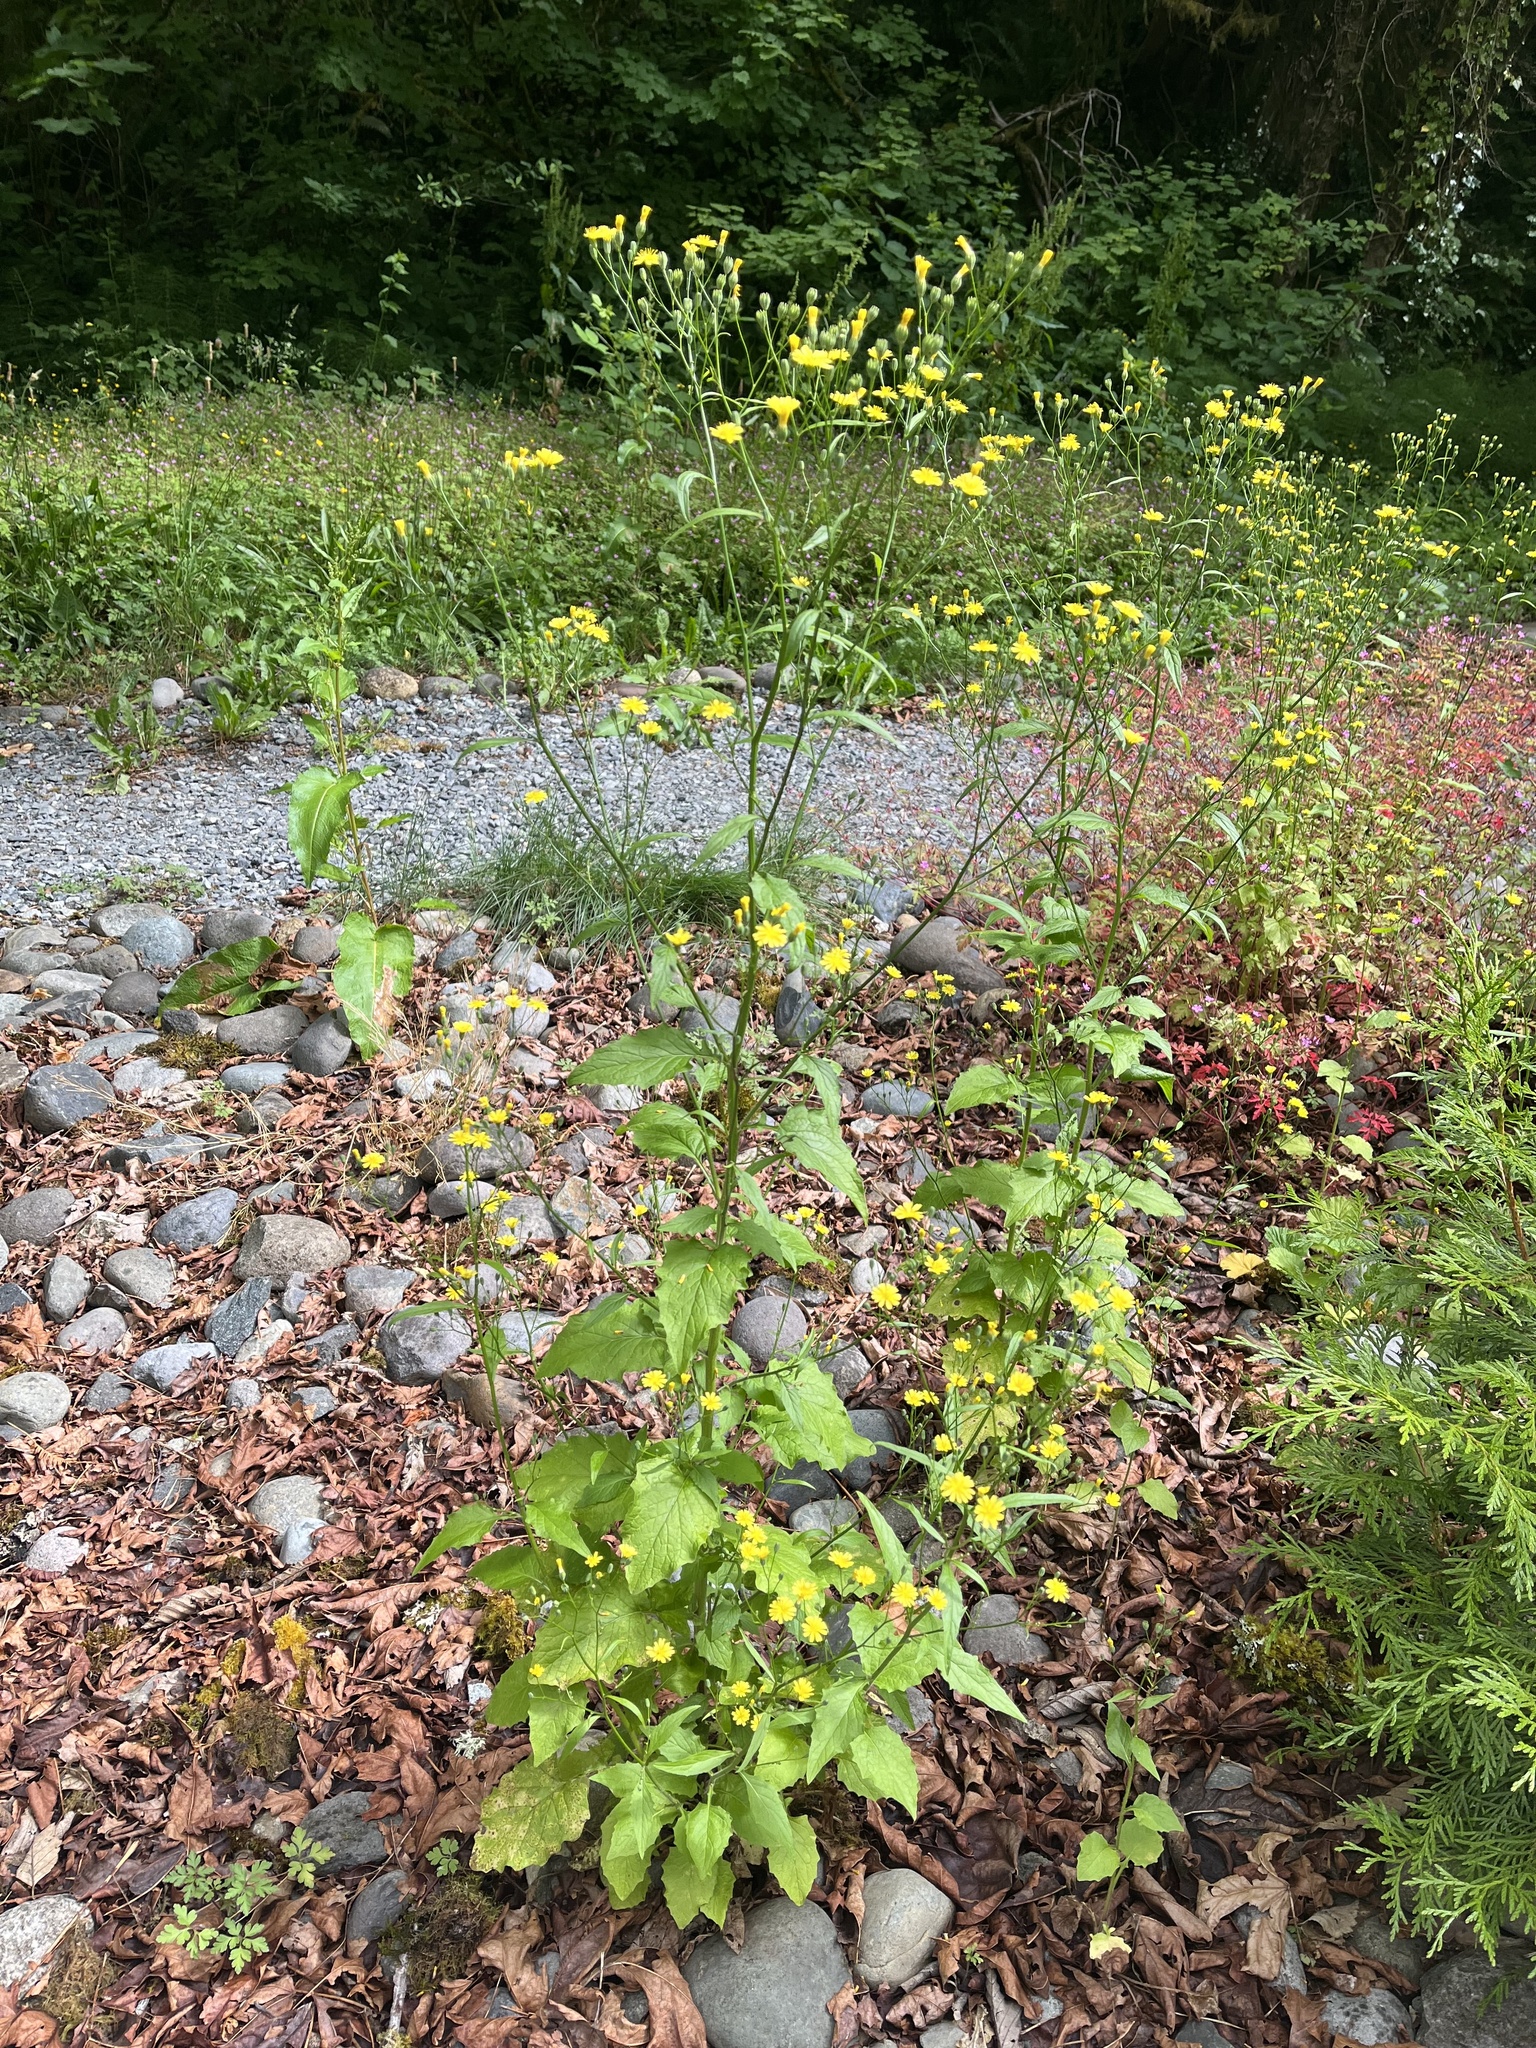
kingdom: Plantae
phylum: Tracheophyta
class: Magnoliopsida
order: Asterales
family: Asteraceae
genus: Lapsana
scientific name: Lapsana communis
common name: Nipplewort
